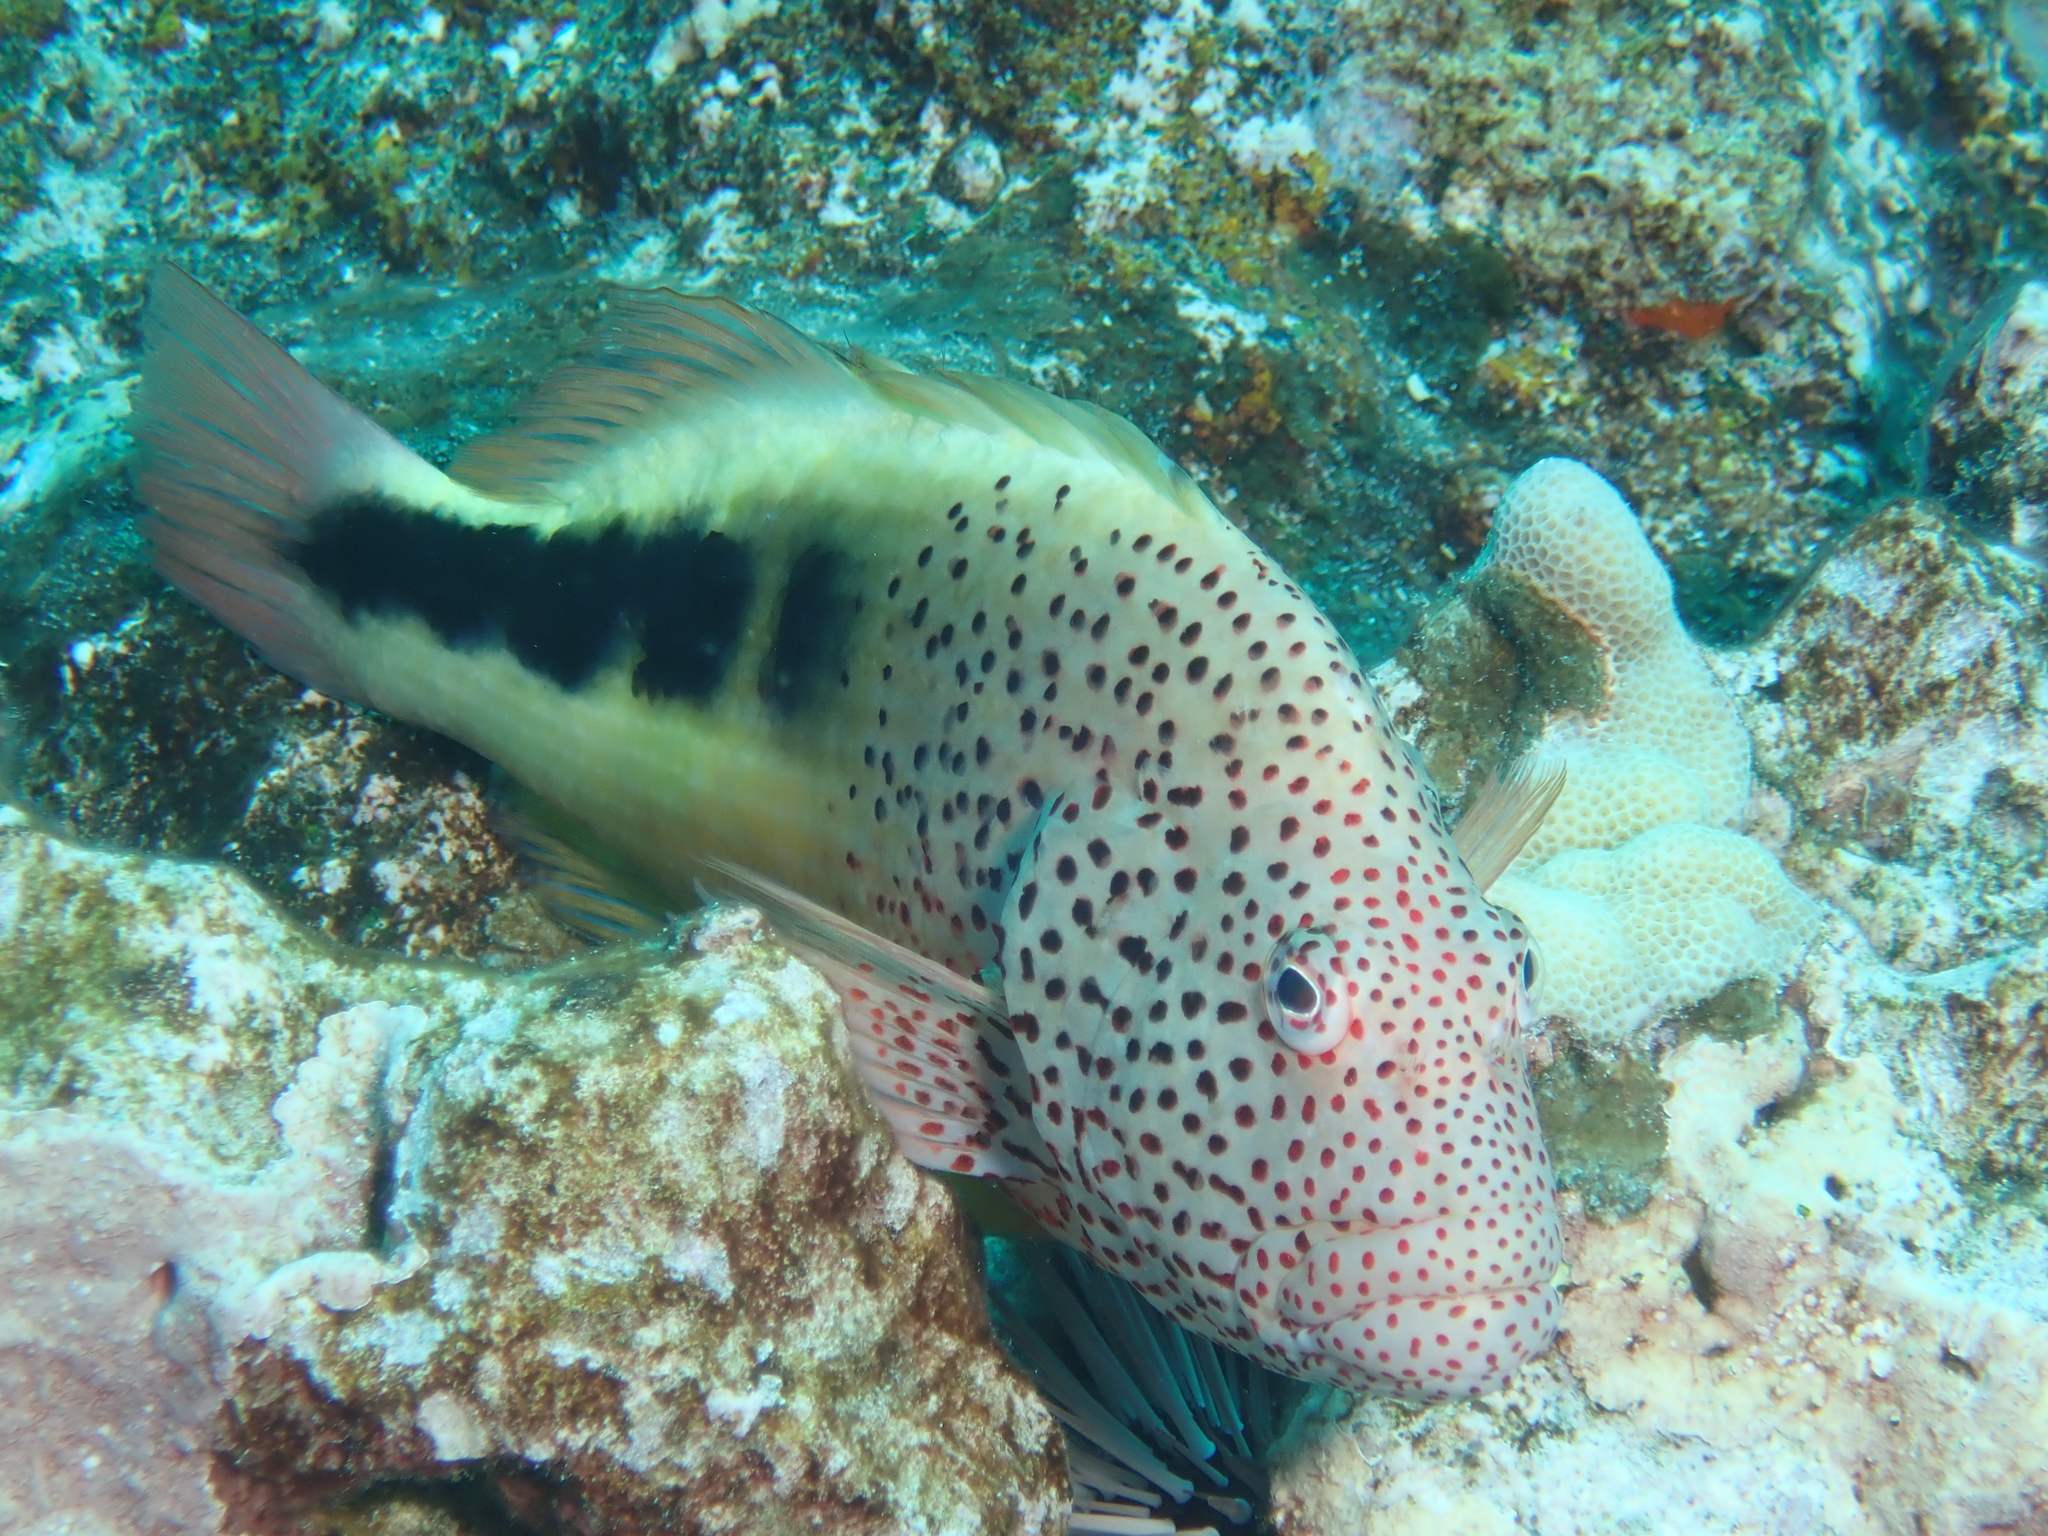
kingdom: Animalia
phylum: Chordata
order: Perciformes
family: Cirrhitidae
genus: Paracirrhites
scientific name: Paracirrhites forsteri
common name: Freckled hawkfish
